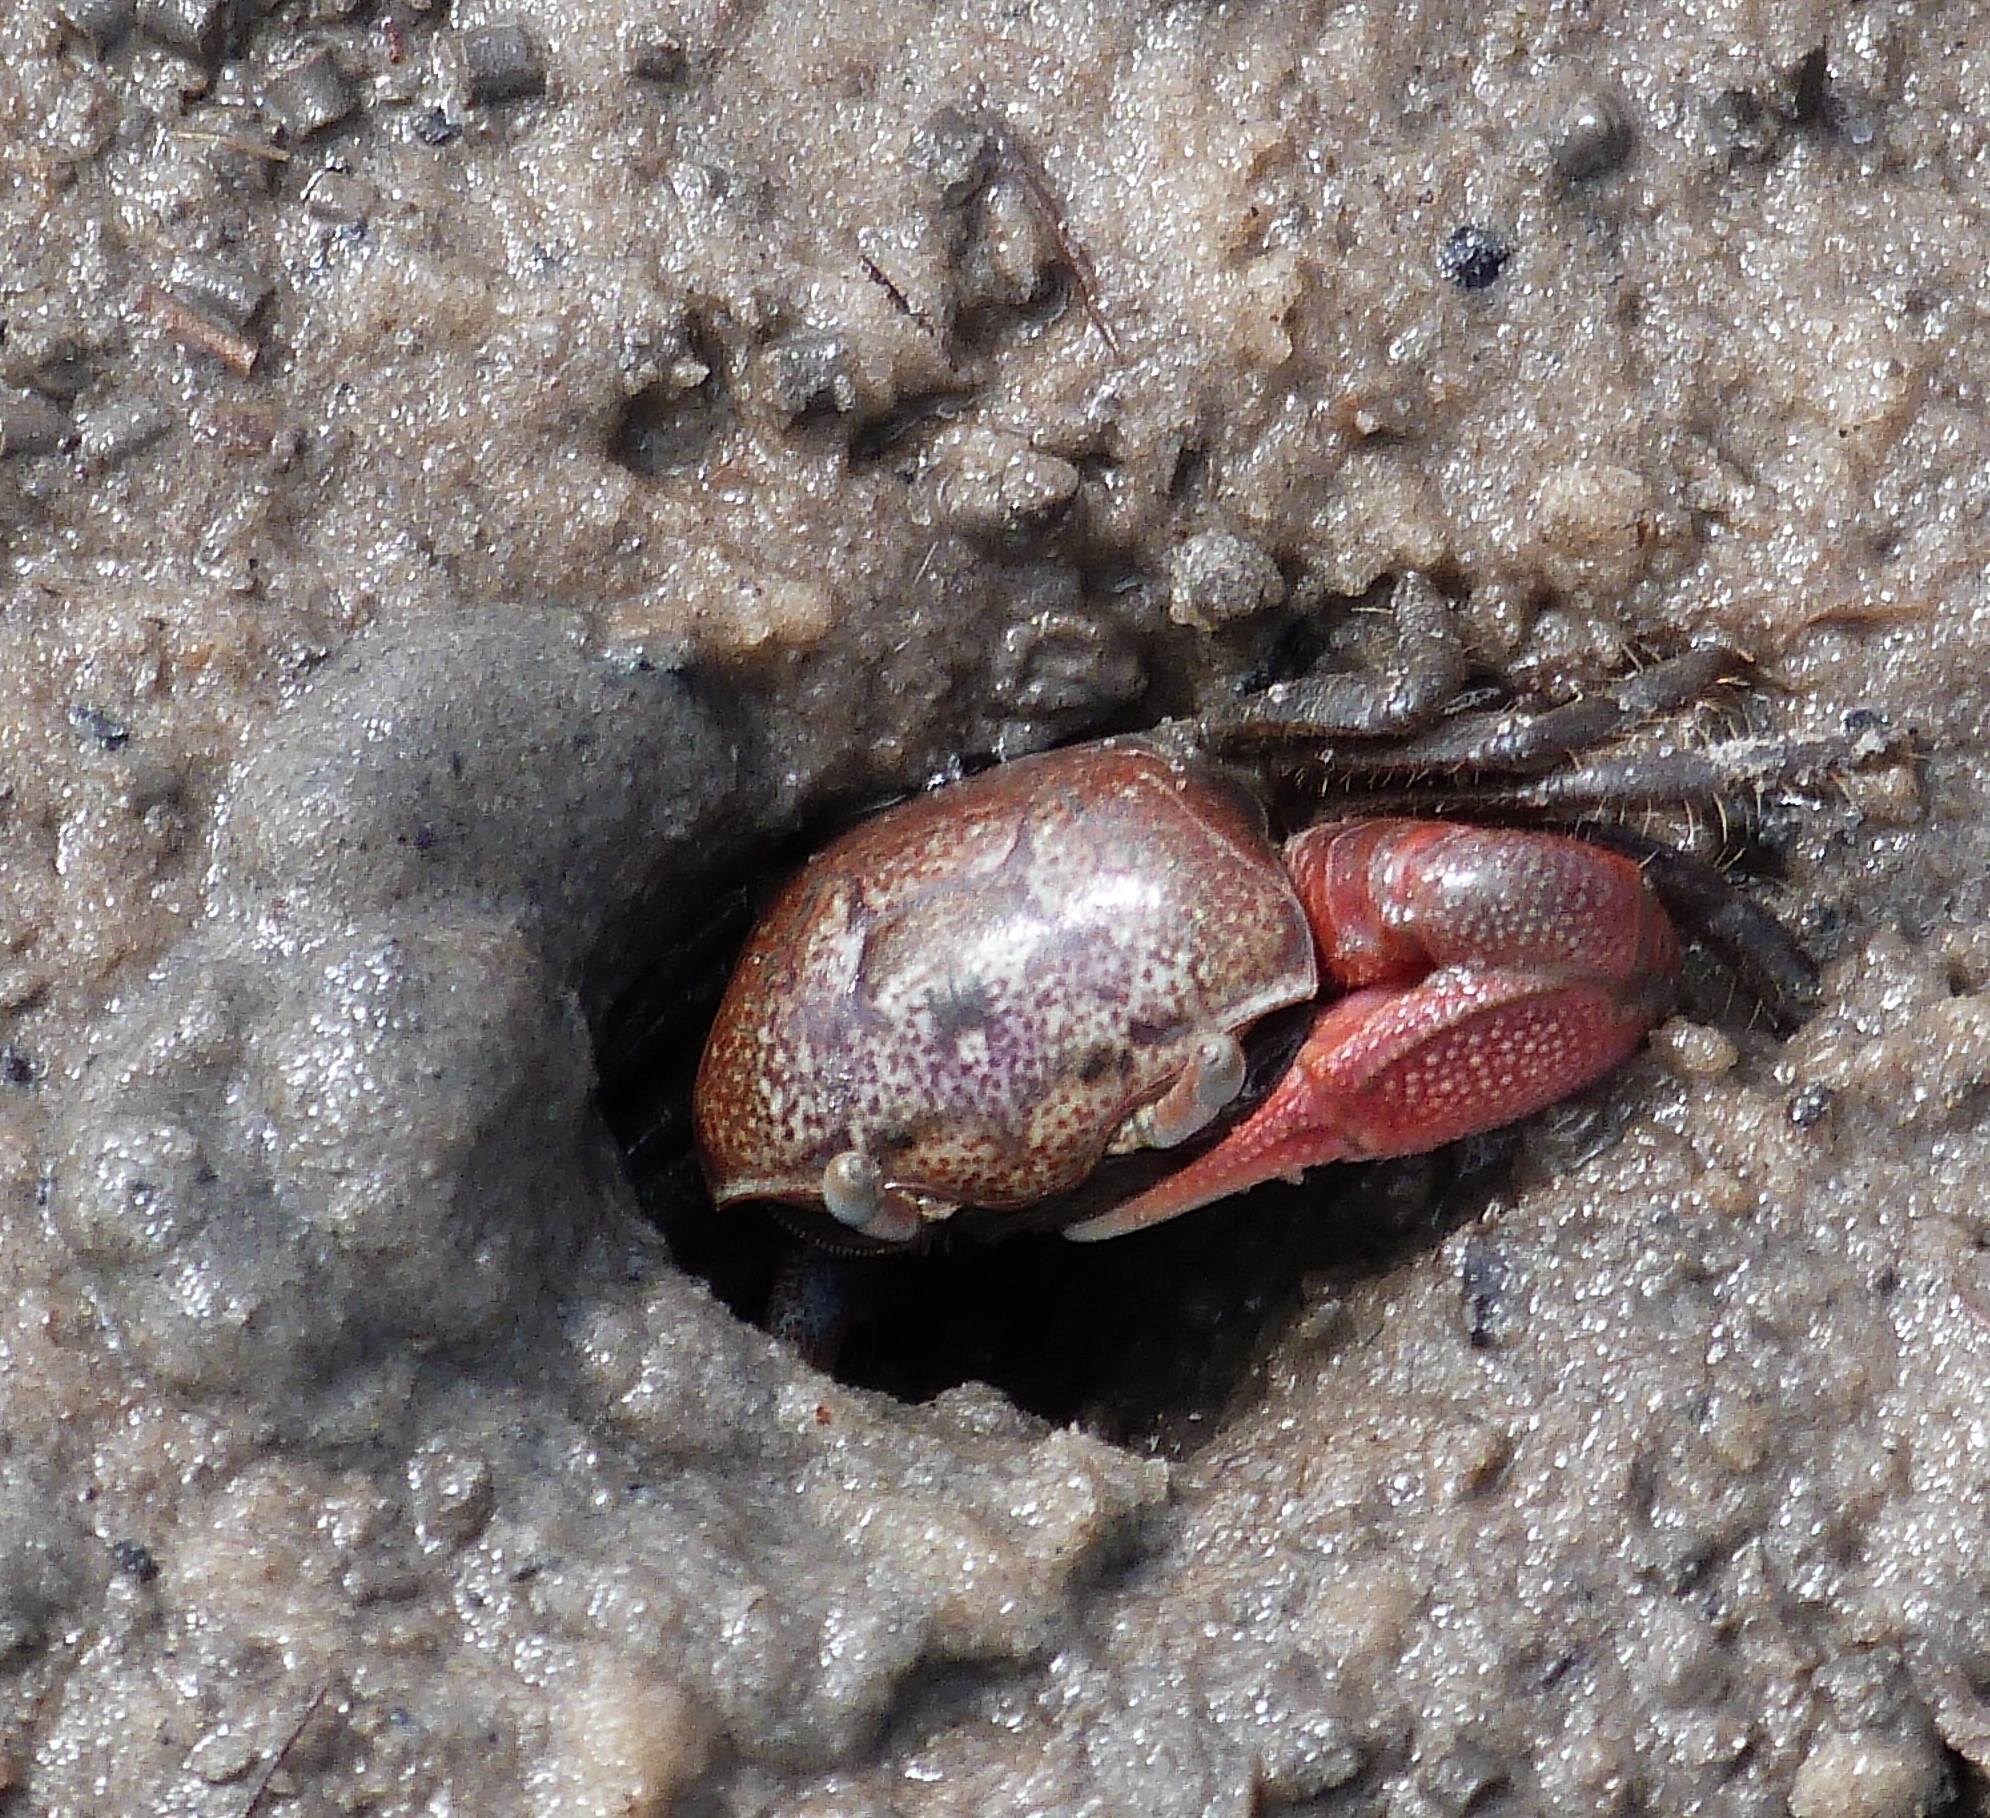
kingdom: Animalia
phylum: Arthropoda
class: Malacostraca
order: Decapoda
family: Ocypodidae
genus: Leptuca
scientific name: Leptuca pugilator
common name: Atlantic sand fiddler crab
